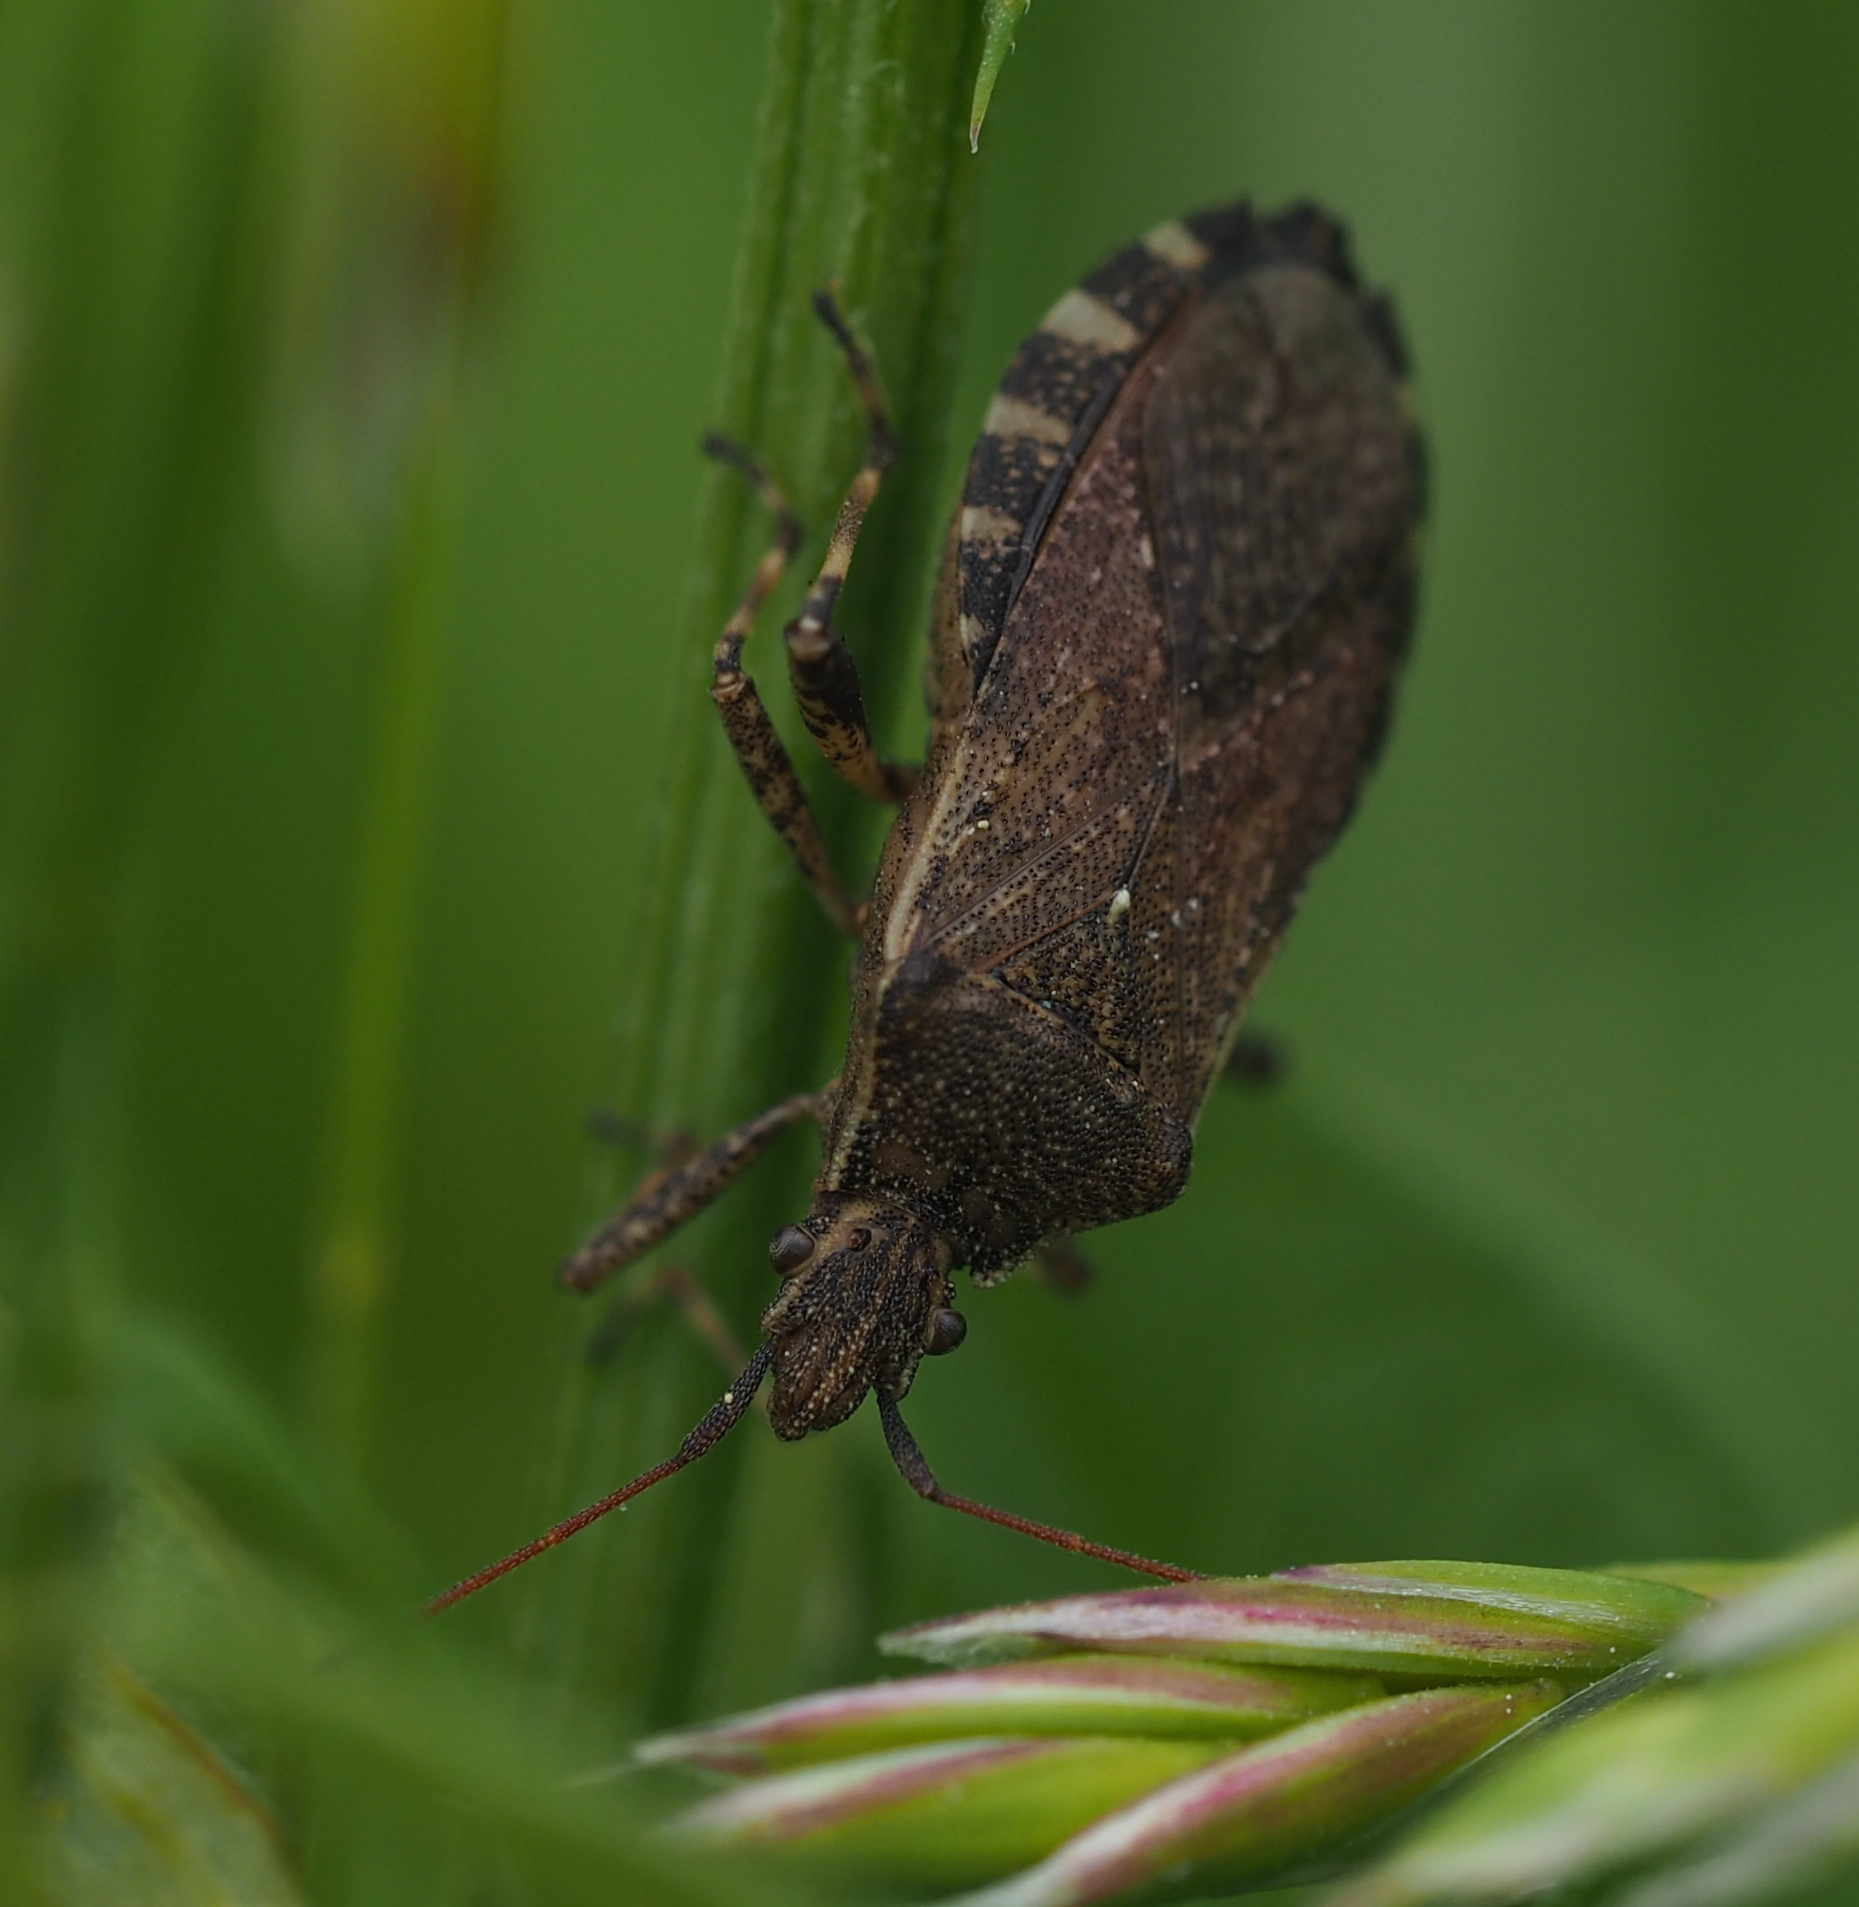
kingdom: Animalia
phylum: Arthropoda
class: Insecta
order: Hemiptera
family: Coreidae
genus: Ceraleptus
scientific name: Ceraleptus gracilicornis
